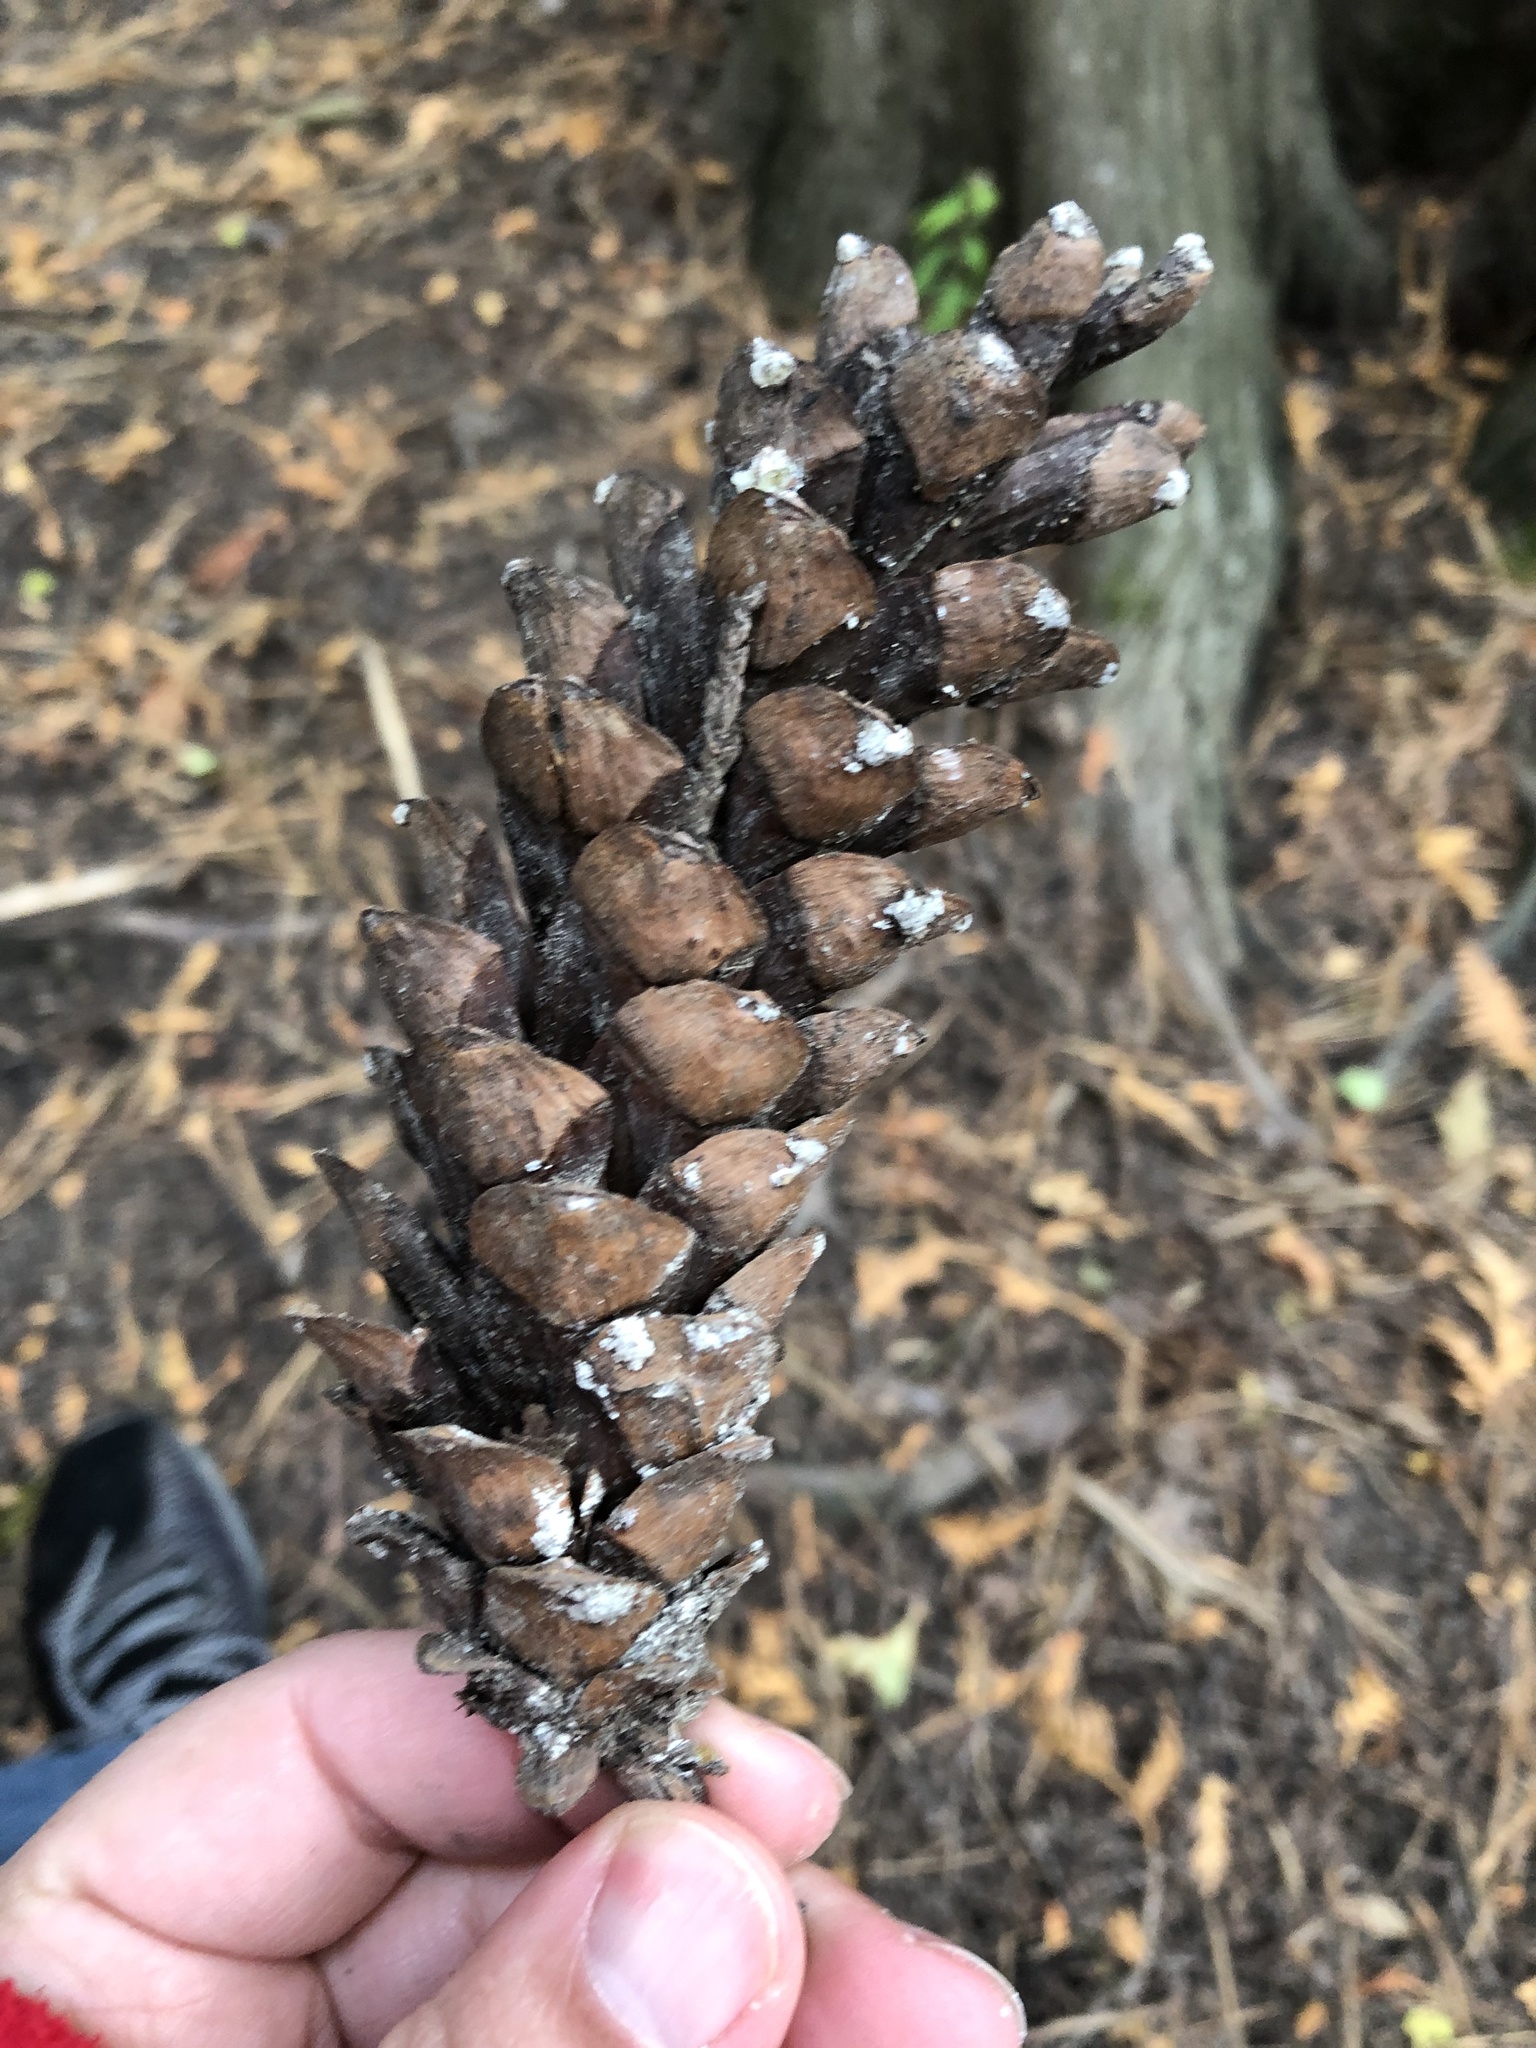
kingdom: Plantae
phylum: Tracheophyta
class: Pinopsida
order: Pinales
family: Pinaceae
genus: Pinus
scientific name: Pinus strobus
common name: Weymouth pine
